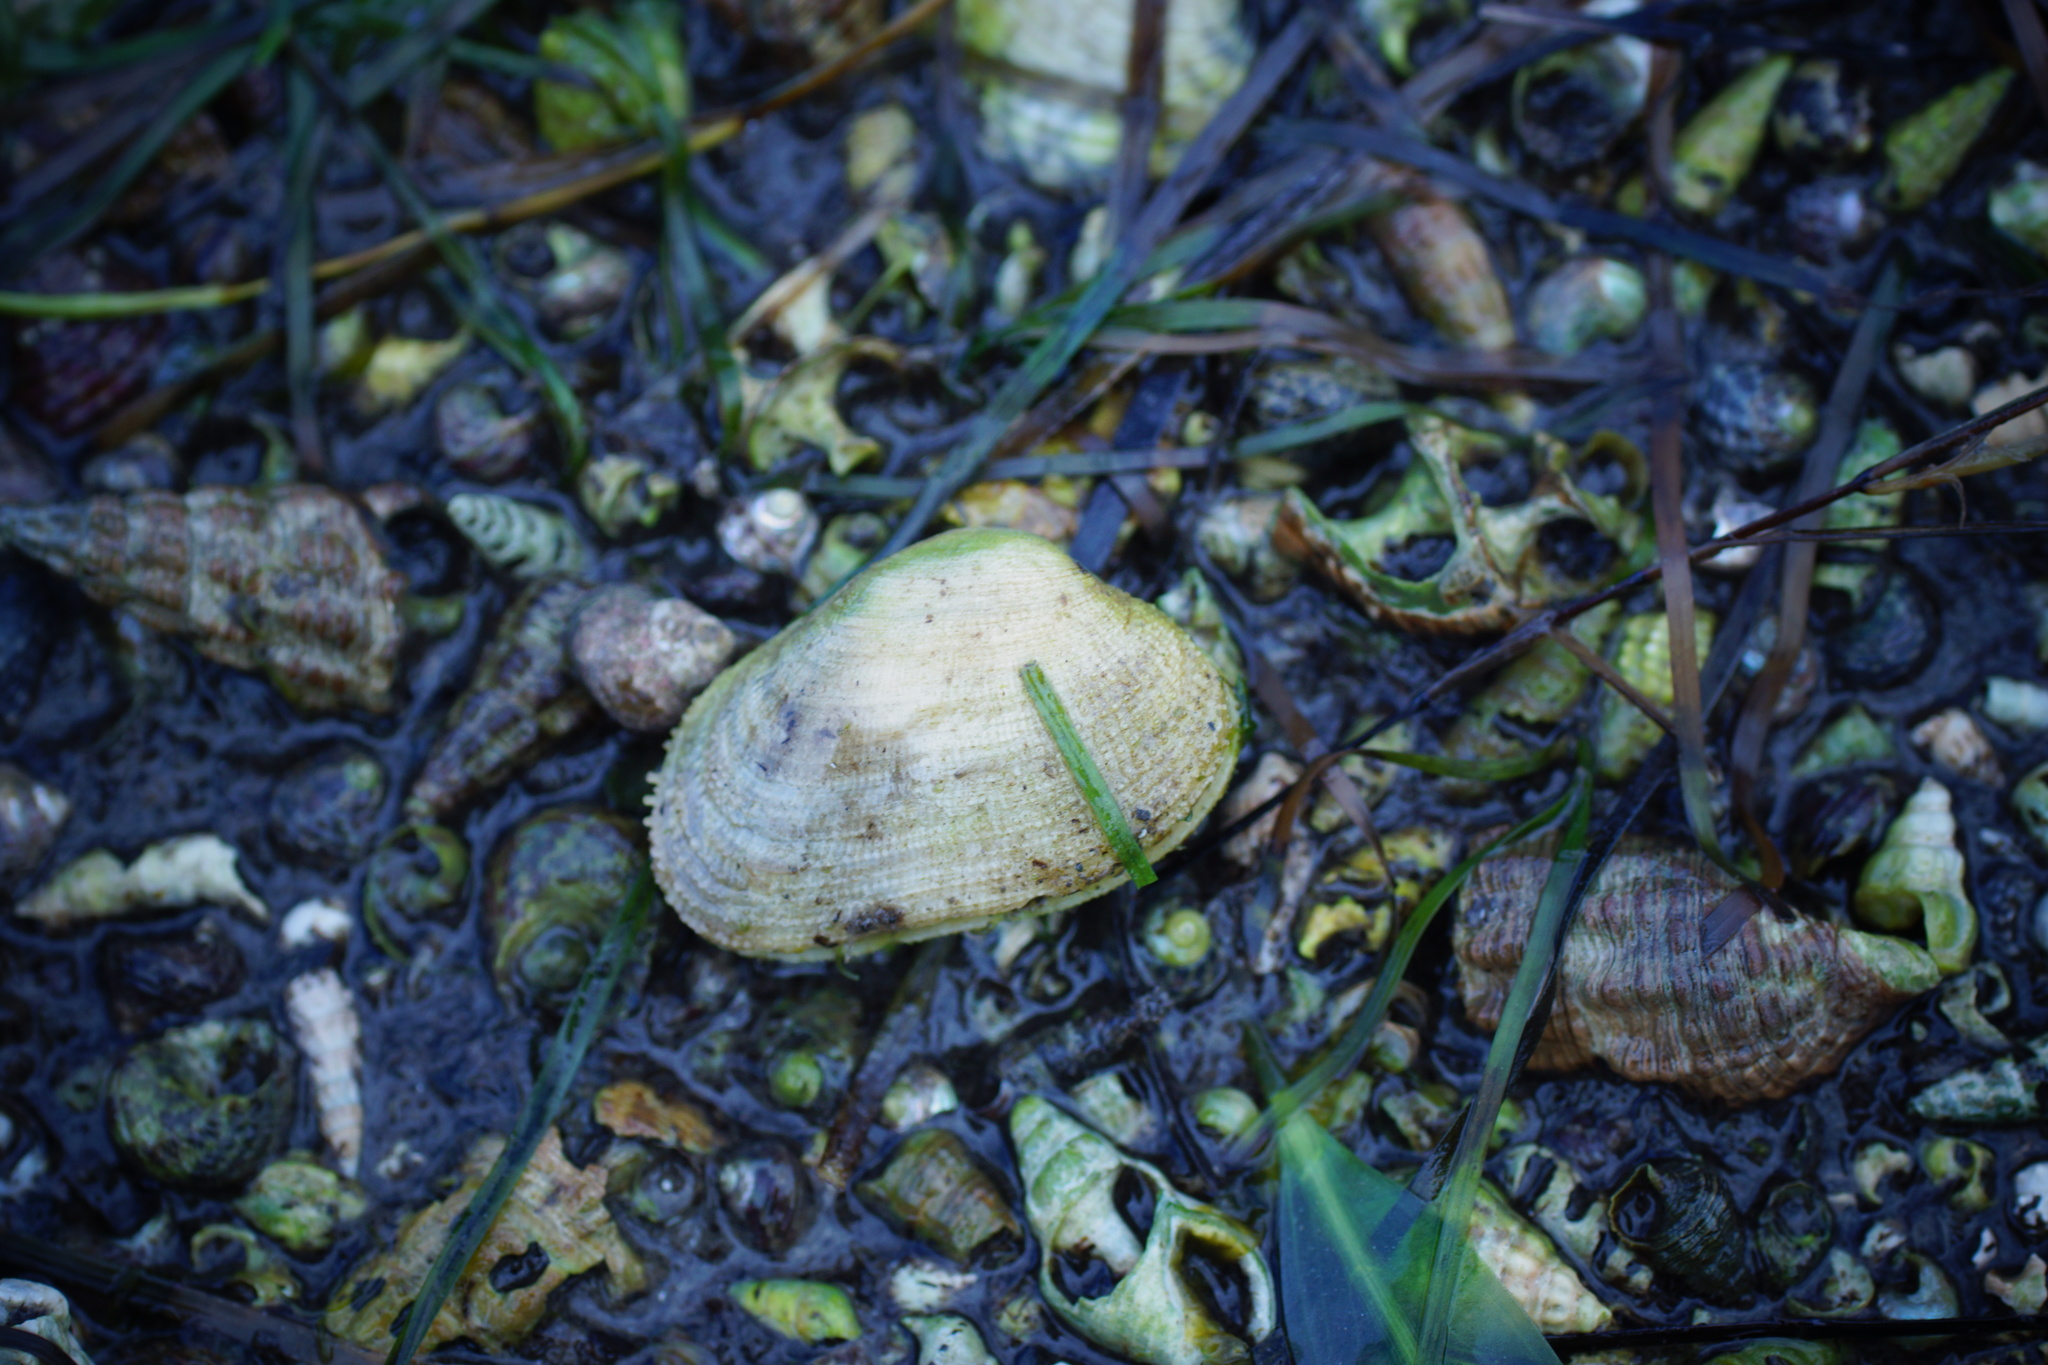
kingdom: Animalia
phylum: Mollusca
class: Bivalvia
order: Venerida
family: Veneridae
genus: Irus
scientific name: Irus crenatus
